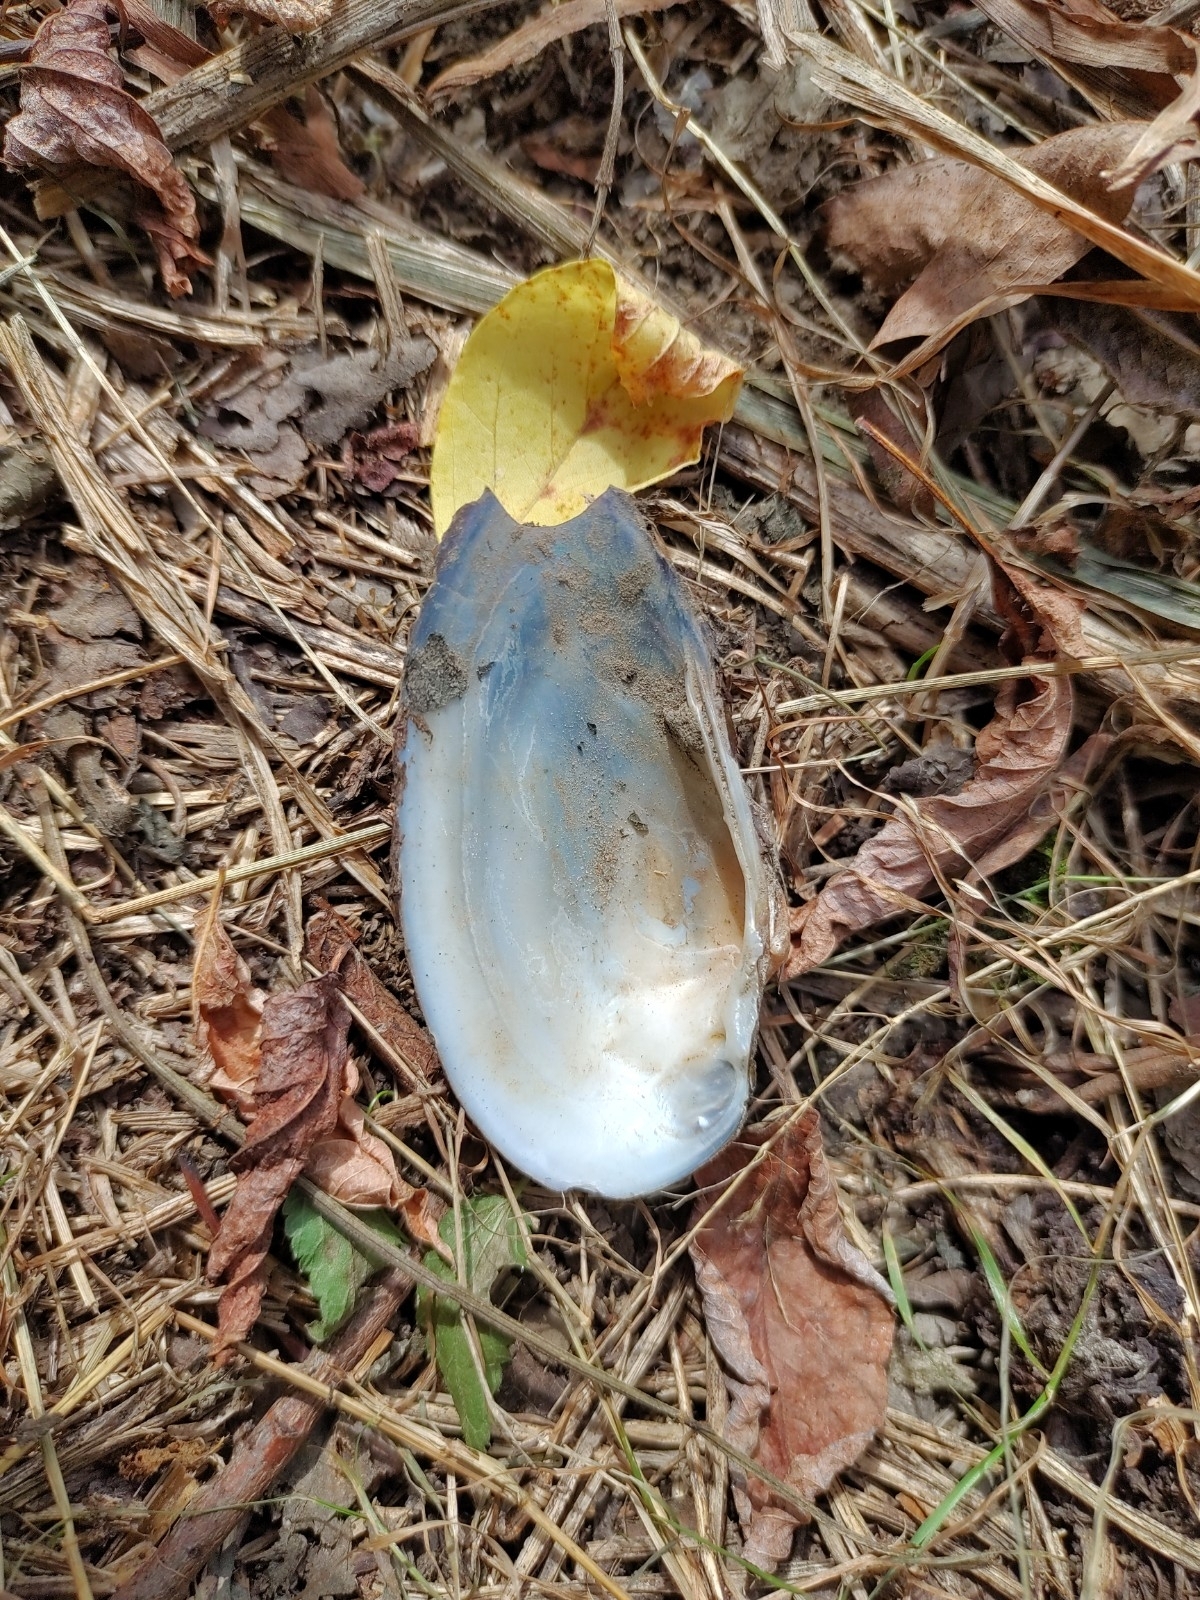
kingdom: Animalia
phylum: Mollusca
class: Bivalvia
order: Unionida
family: Unionidae
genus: Unio
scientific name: Unio tumidus
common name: Swollen river mussel
